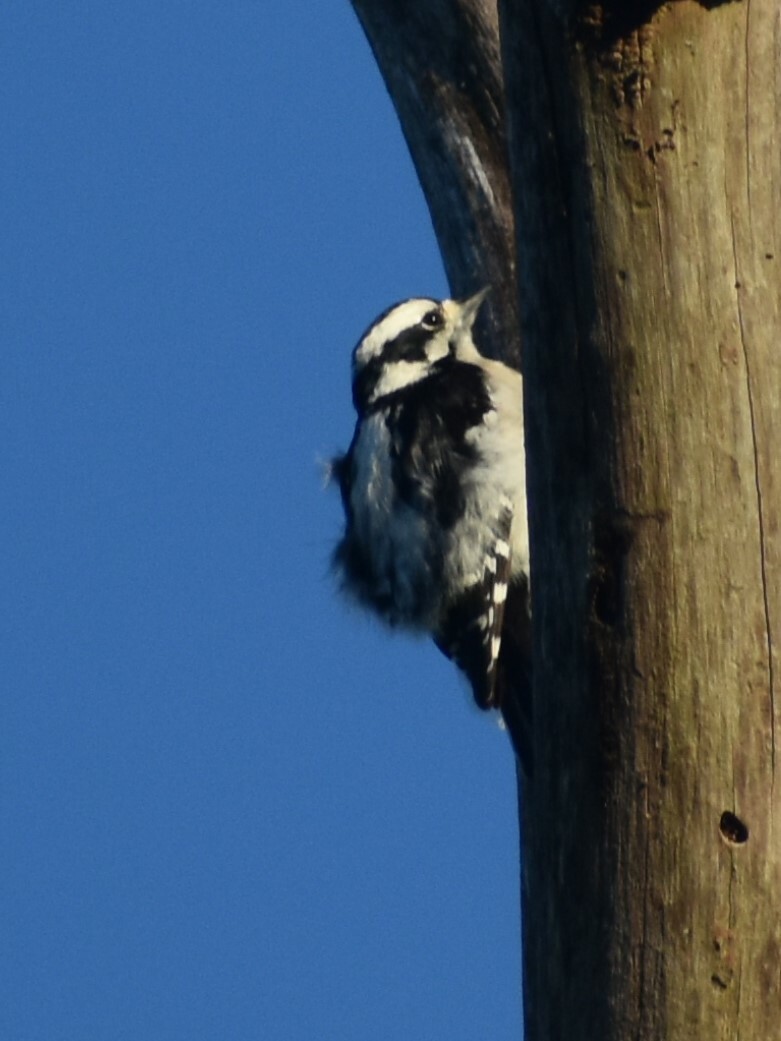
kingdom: Animalia
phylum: Chordata
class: Aves
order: Piciformes
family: Picidae
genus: Dryobates
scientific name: Dryobates pubescens
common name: Downy woodpecker
